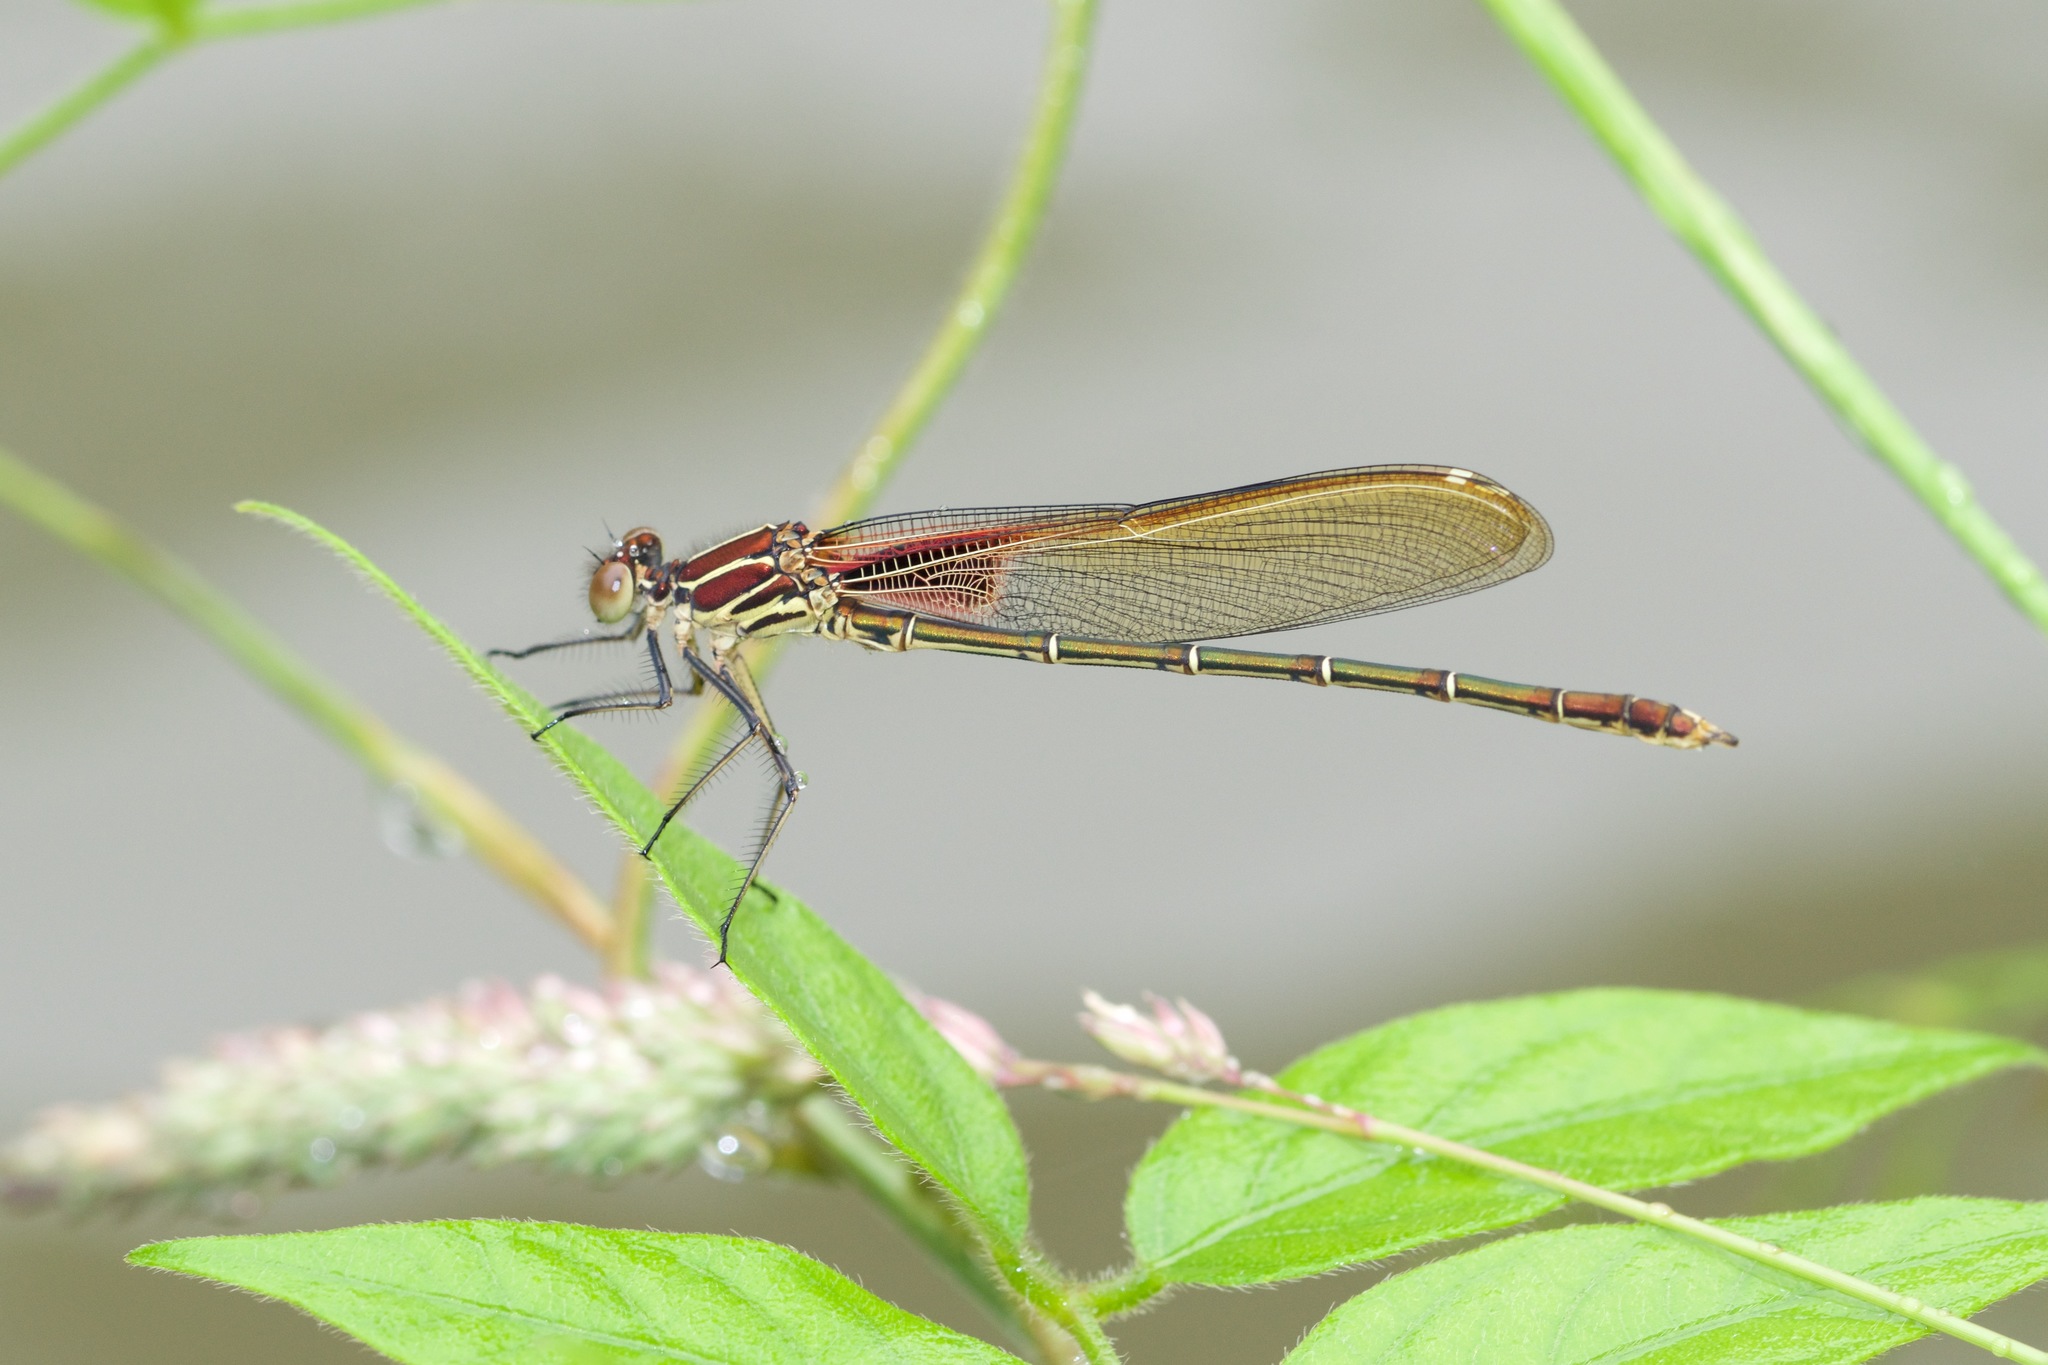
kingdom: Animalia
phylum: Arthropoda
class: Insecta
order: Odonata
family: Calopterygidae
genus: Hetaerina
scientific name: Hetaerina americana
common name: American rubyspot
